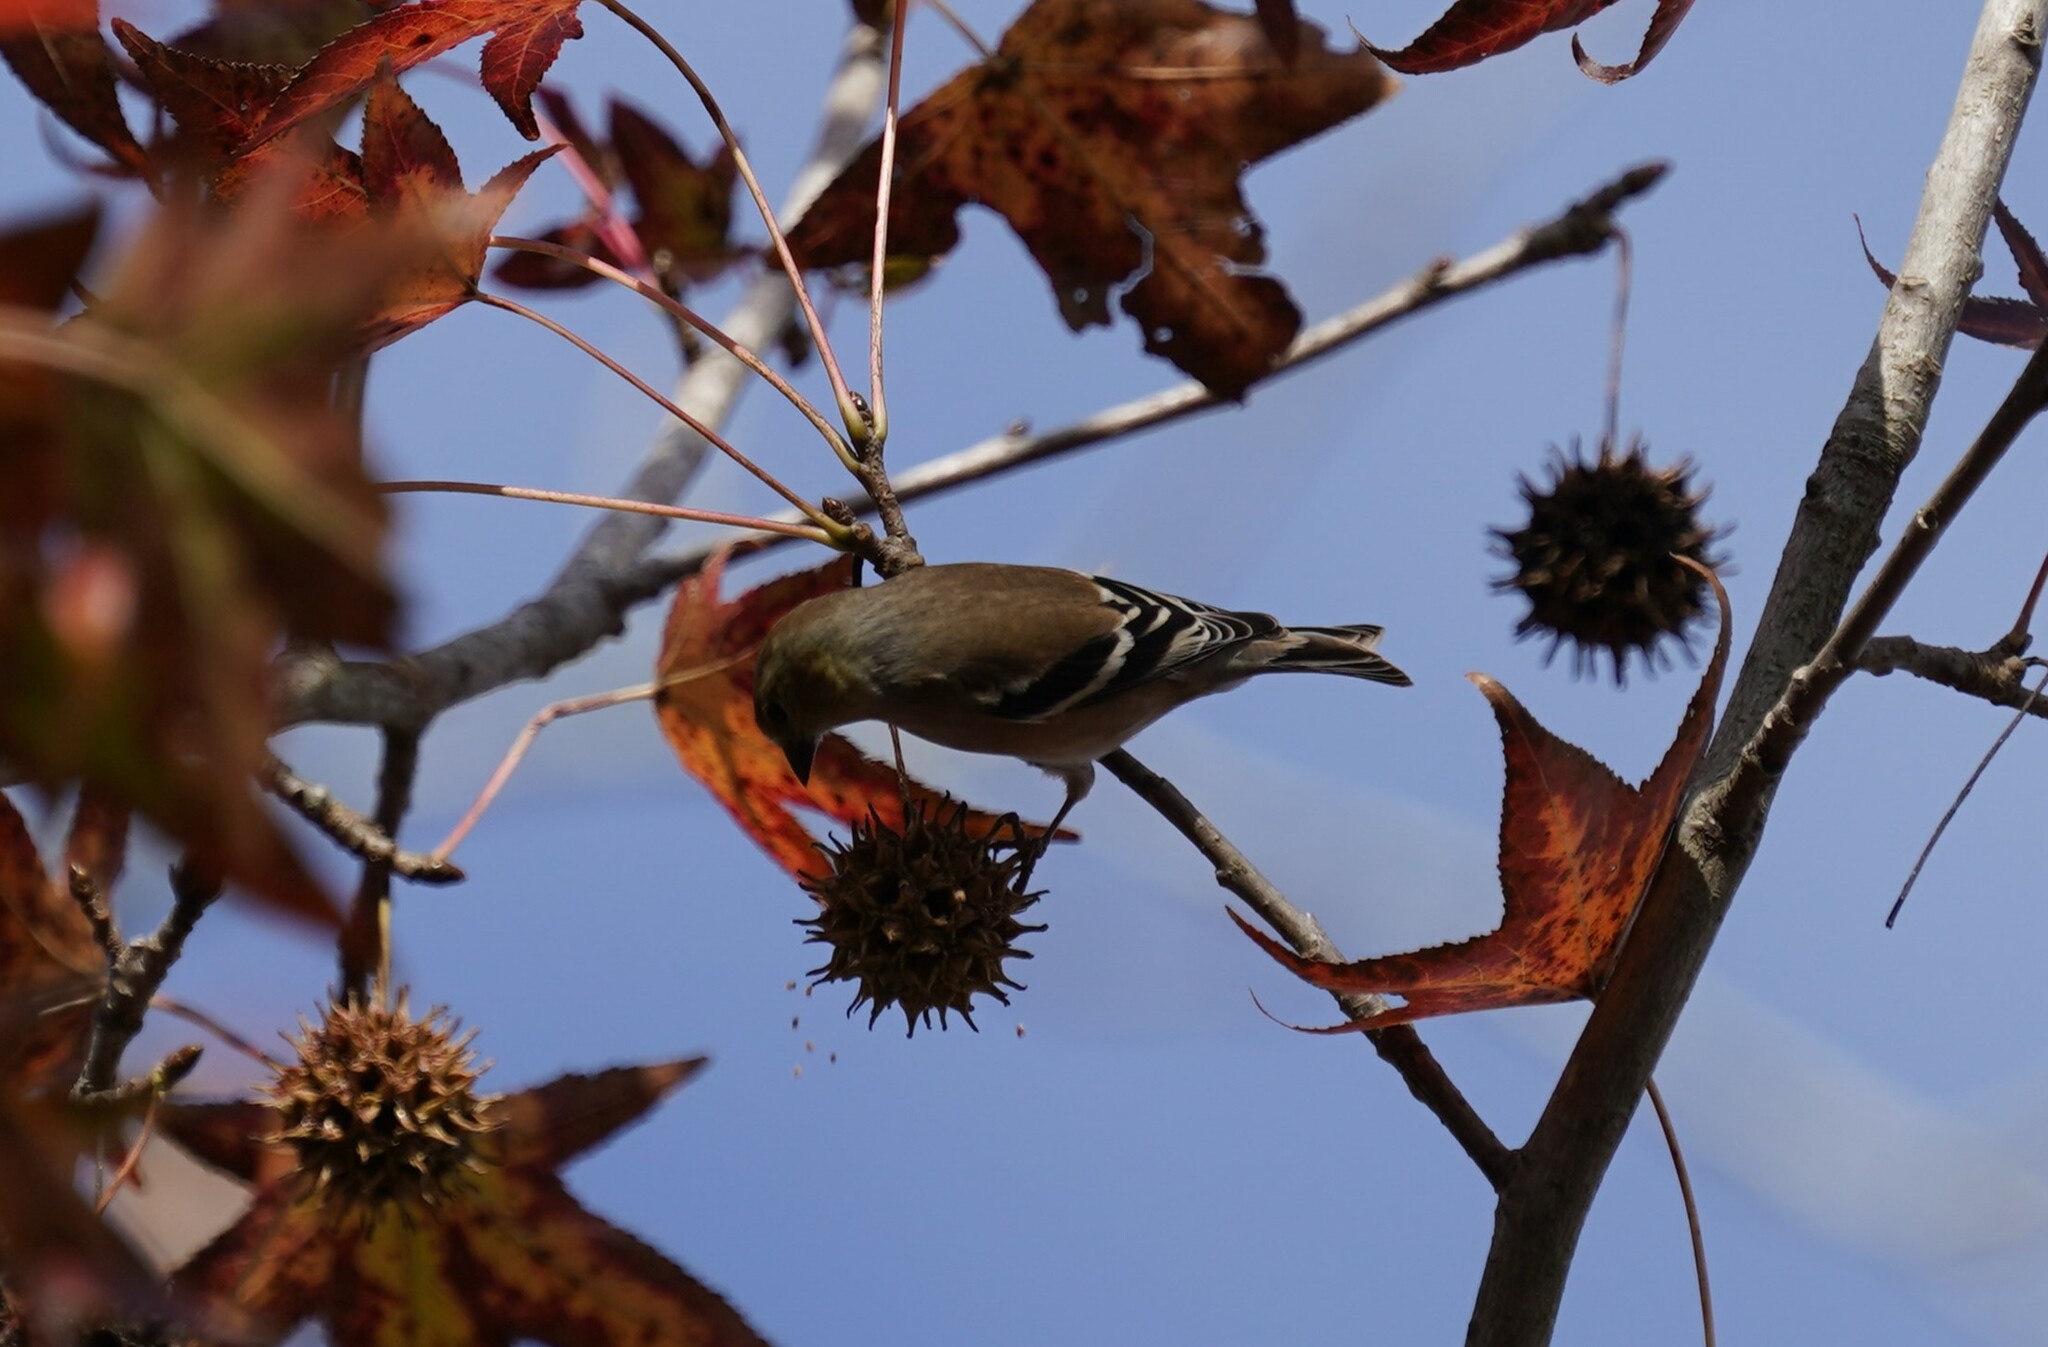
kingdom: Animalia
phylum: Chordata
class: Aves
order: Passeriformes
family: Fringillidae
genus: Spinus
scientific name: Spinus tristis
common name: American goldfinch
